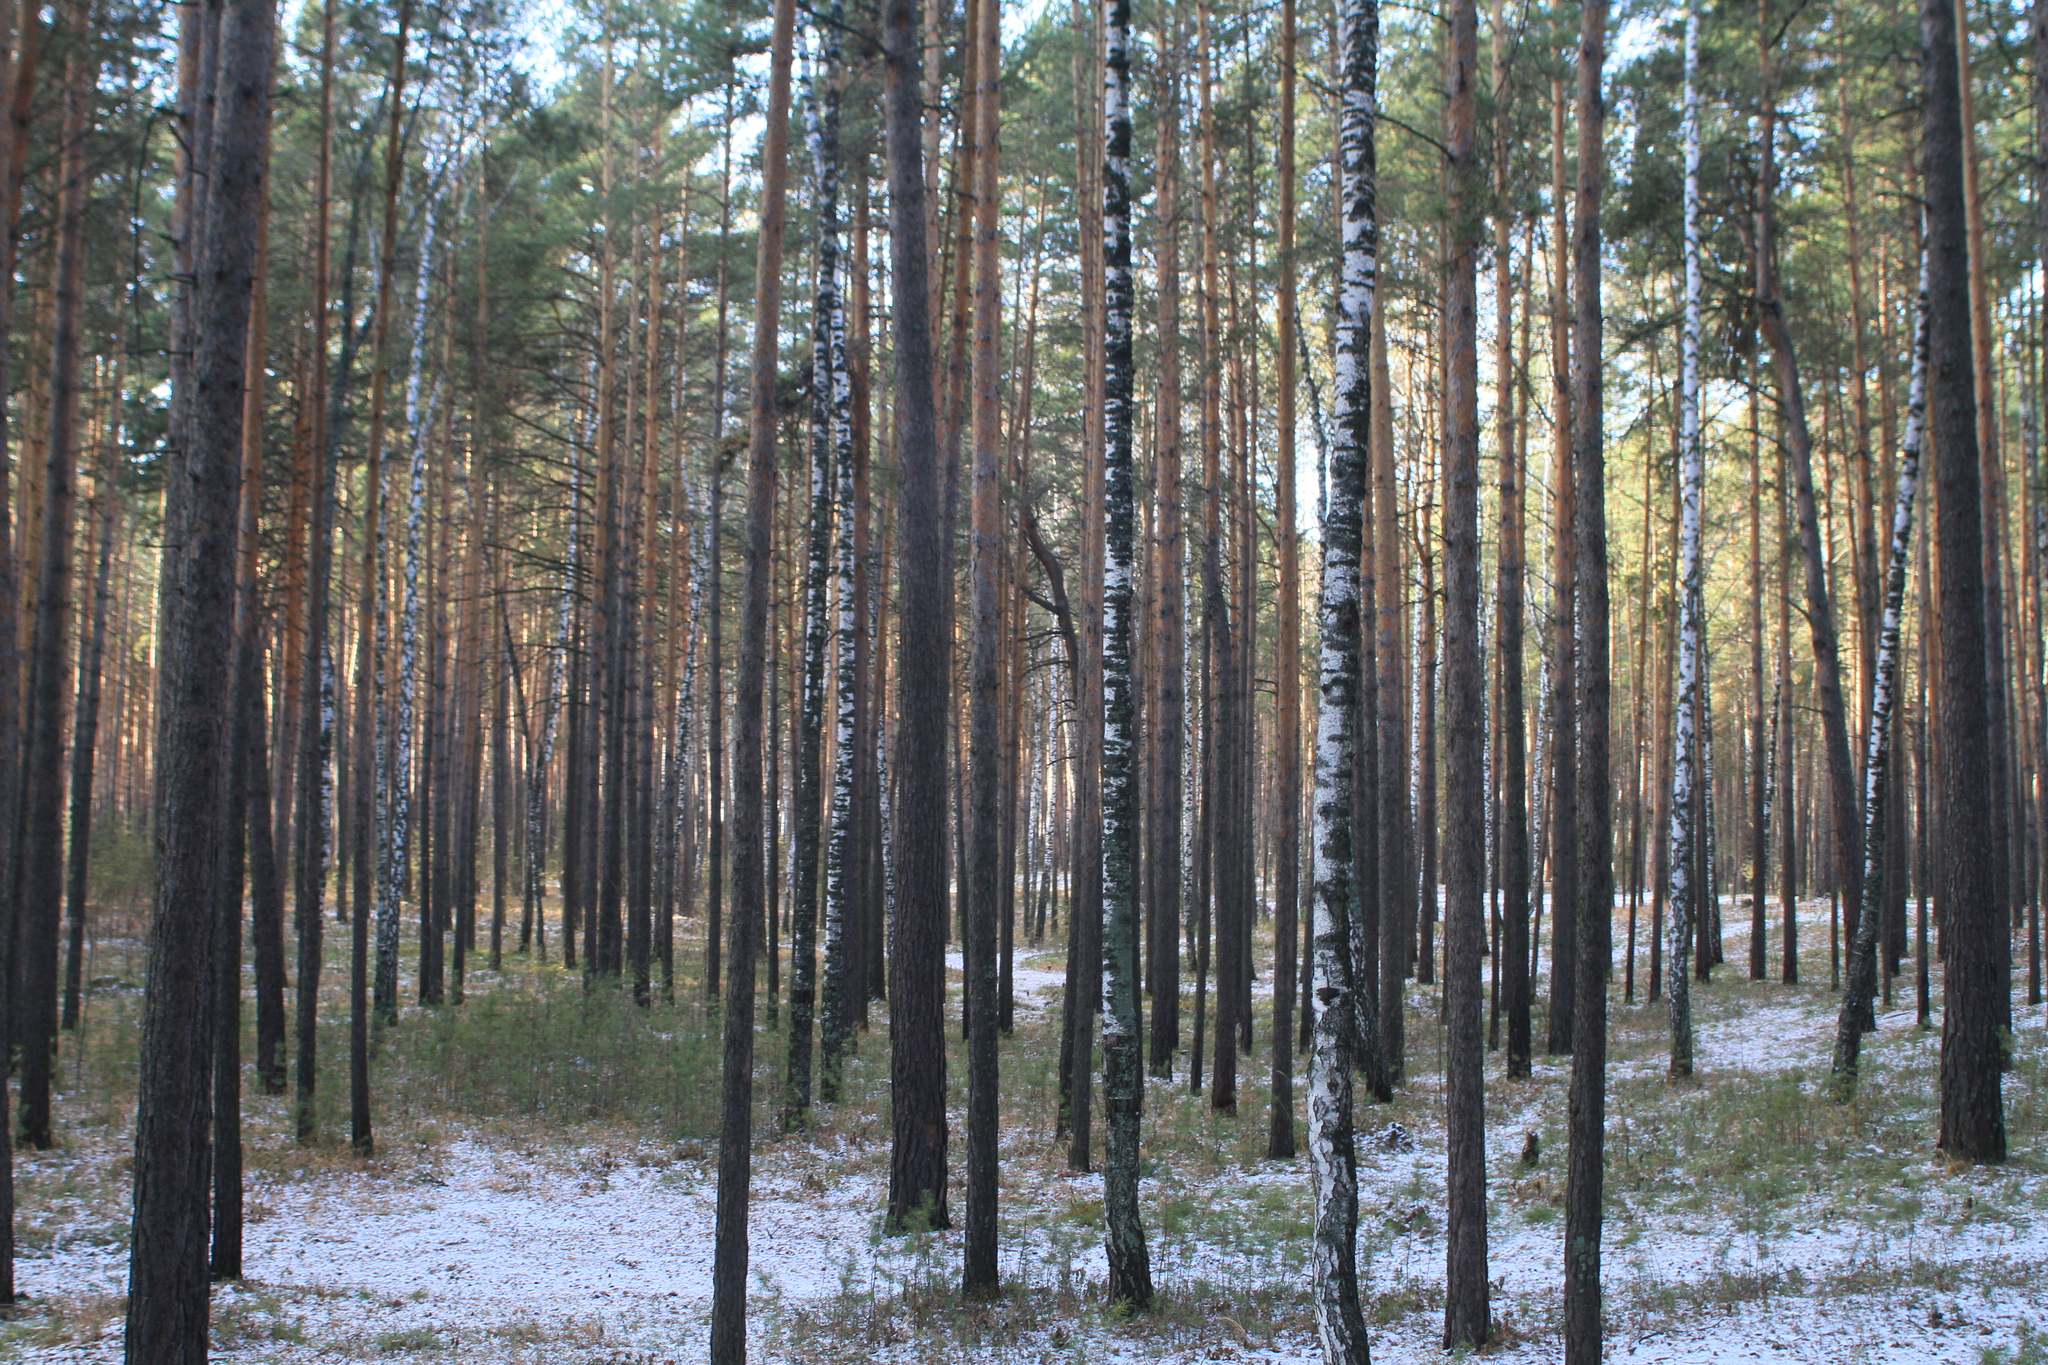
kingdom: Plantae
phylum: Tracheophyta
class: Pinopsida
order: Pinales
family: Pinaceae
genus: Pinus
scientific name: Pinus sylvestris
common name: Scots pine
